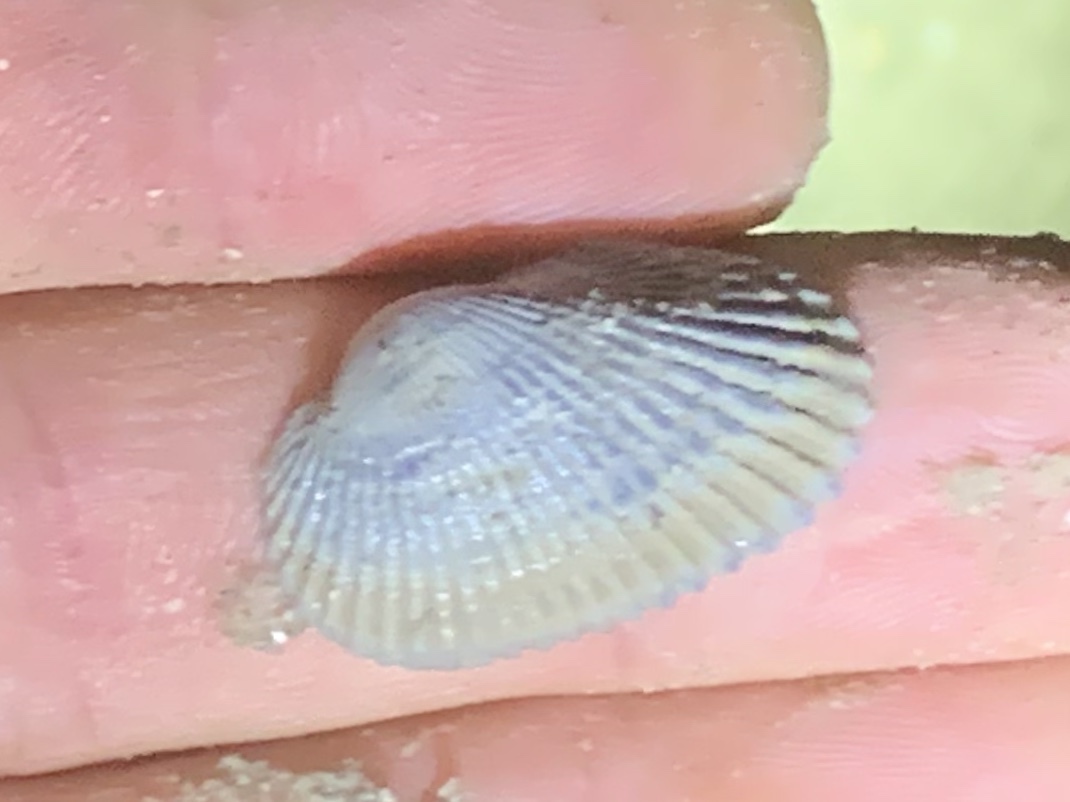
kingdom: Animalia
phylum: Mollusca
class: Bivalvia
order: Arcida
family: Arcidae
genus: Anadara
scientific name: Anadara transversa
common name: Transverse ark
